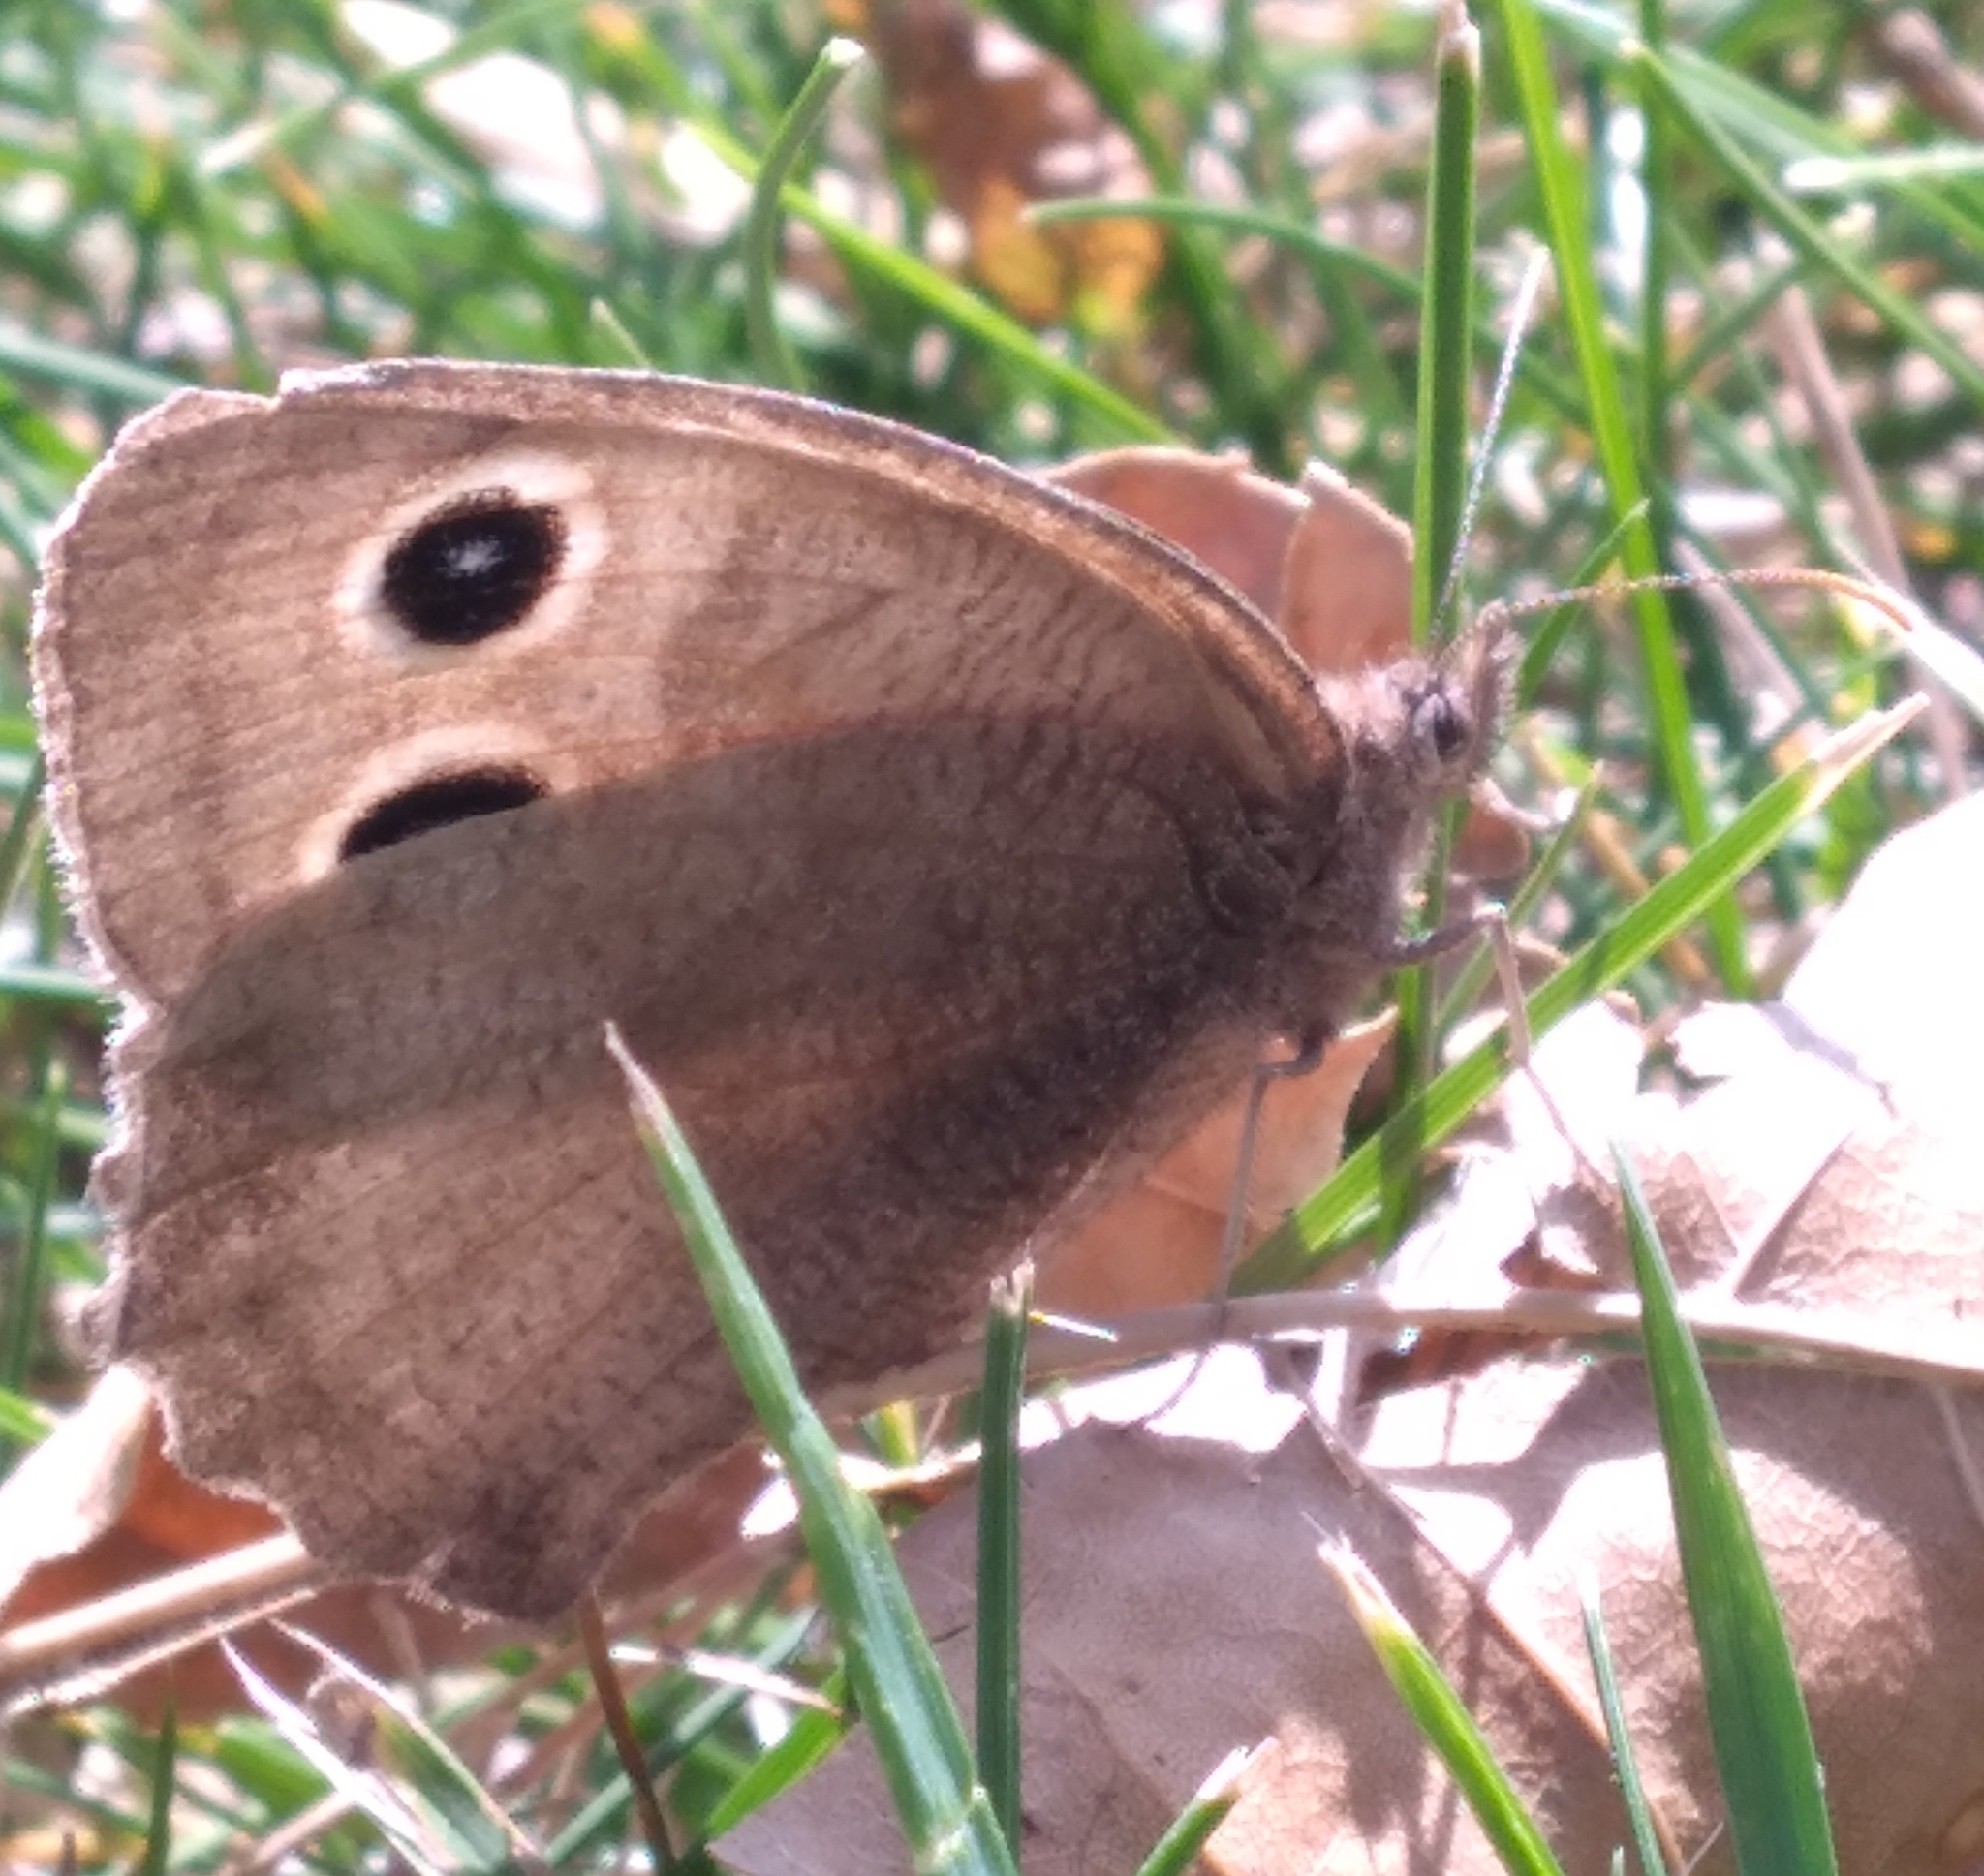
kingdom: Animalia
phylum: Arthropoda
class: Insecta
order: Lepidoptera
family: Nymphalidae
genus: Cercyonis
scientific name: Cercyonis pegala
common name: Common wood-nymph
